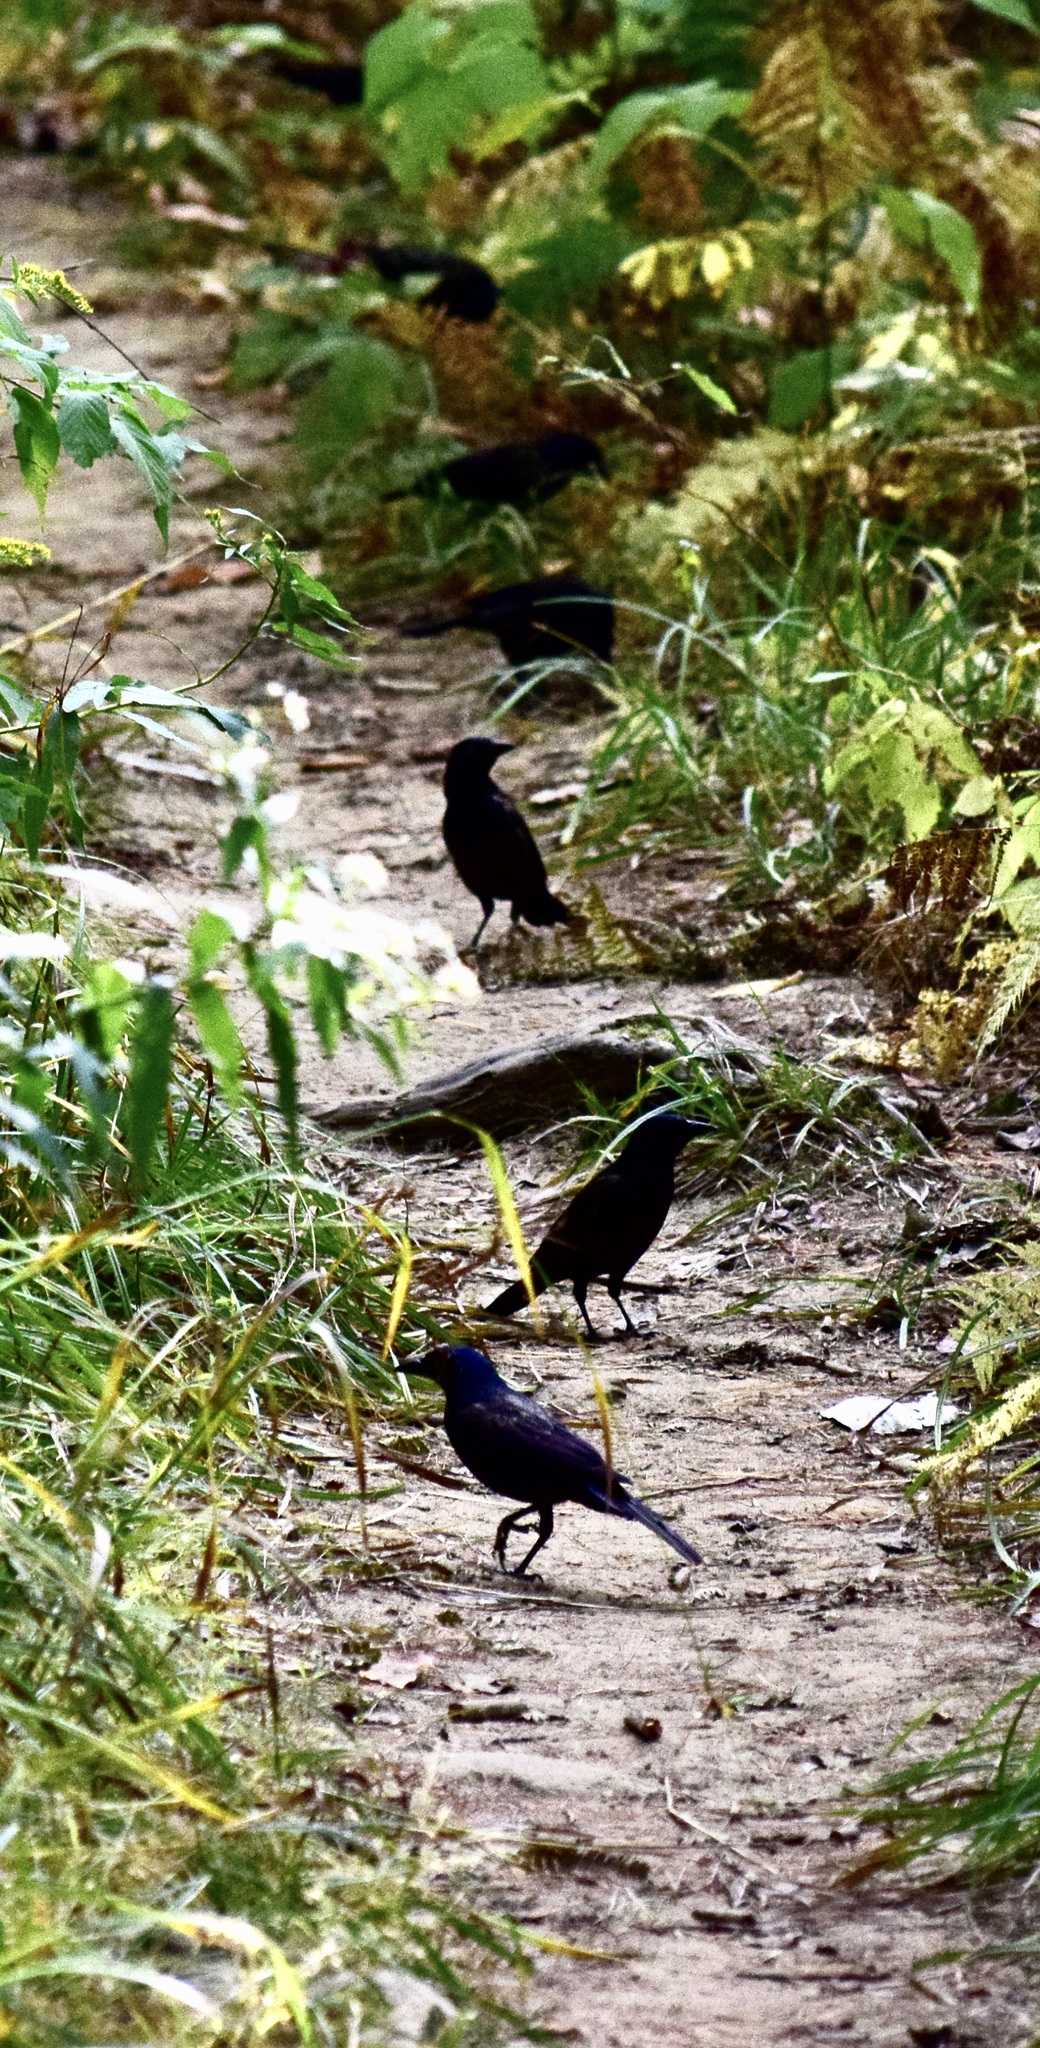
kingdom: Animalia
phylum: Chordata
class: Aves
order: Passeriformes
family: Icteridae
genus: Quiscalus
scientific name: Quiscalus quiscula
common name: Common grackle
